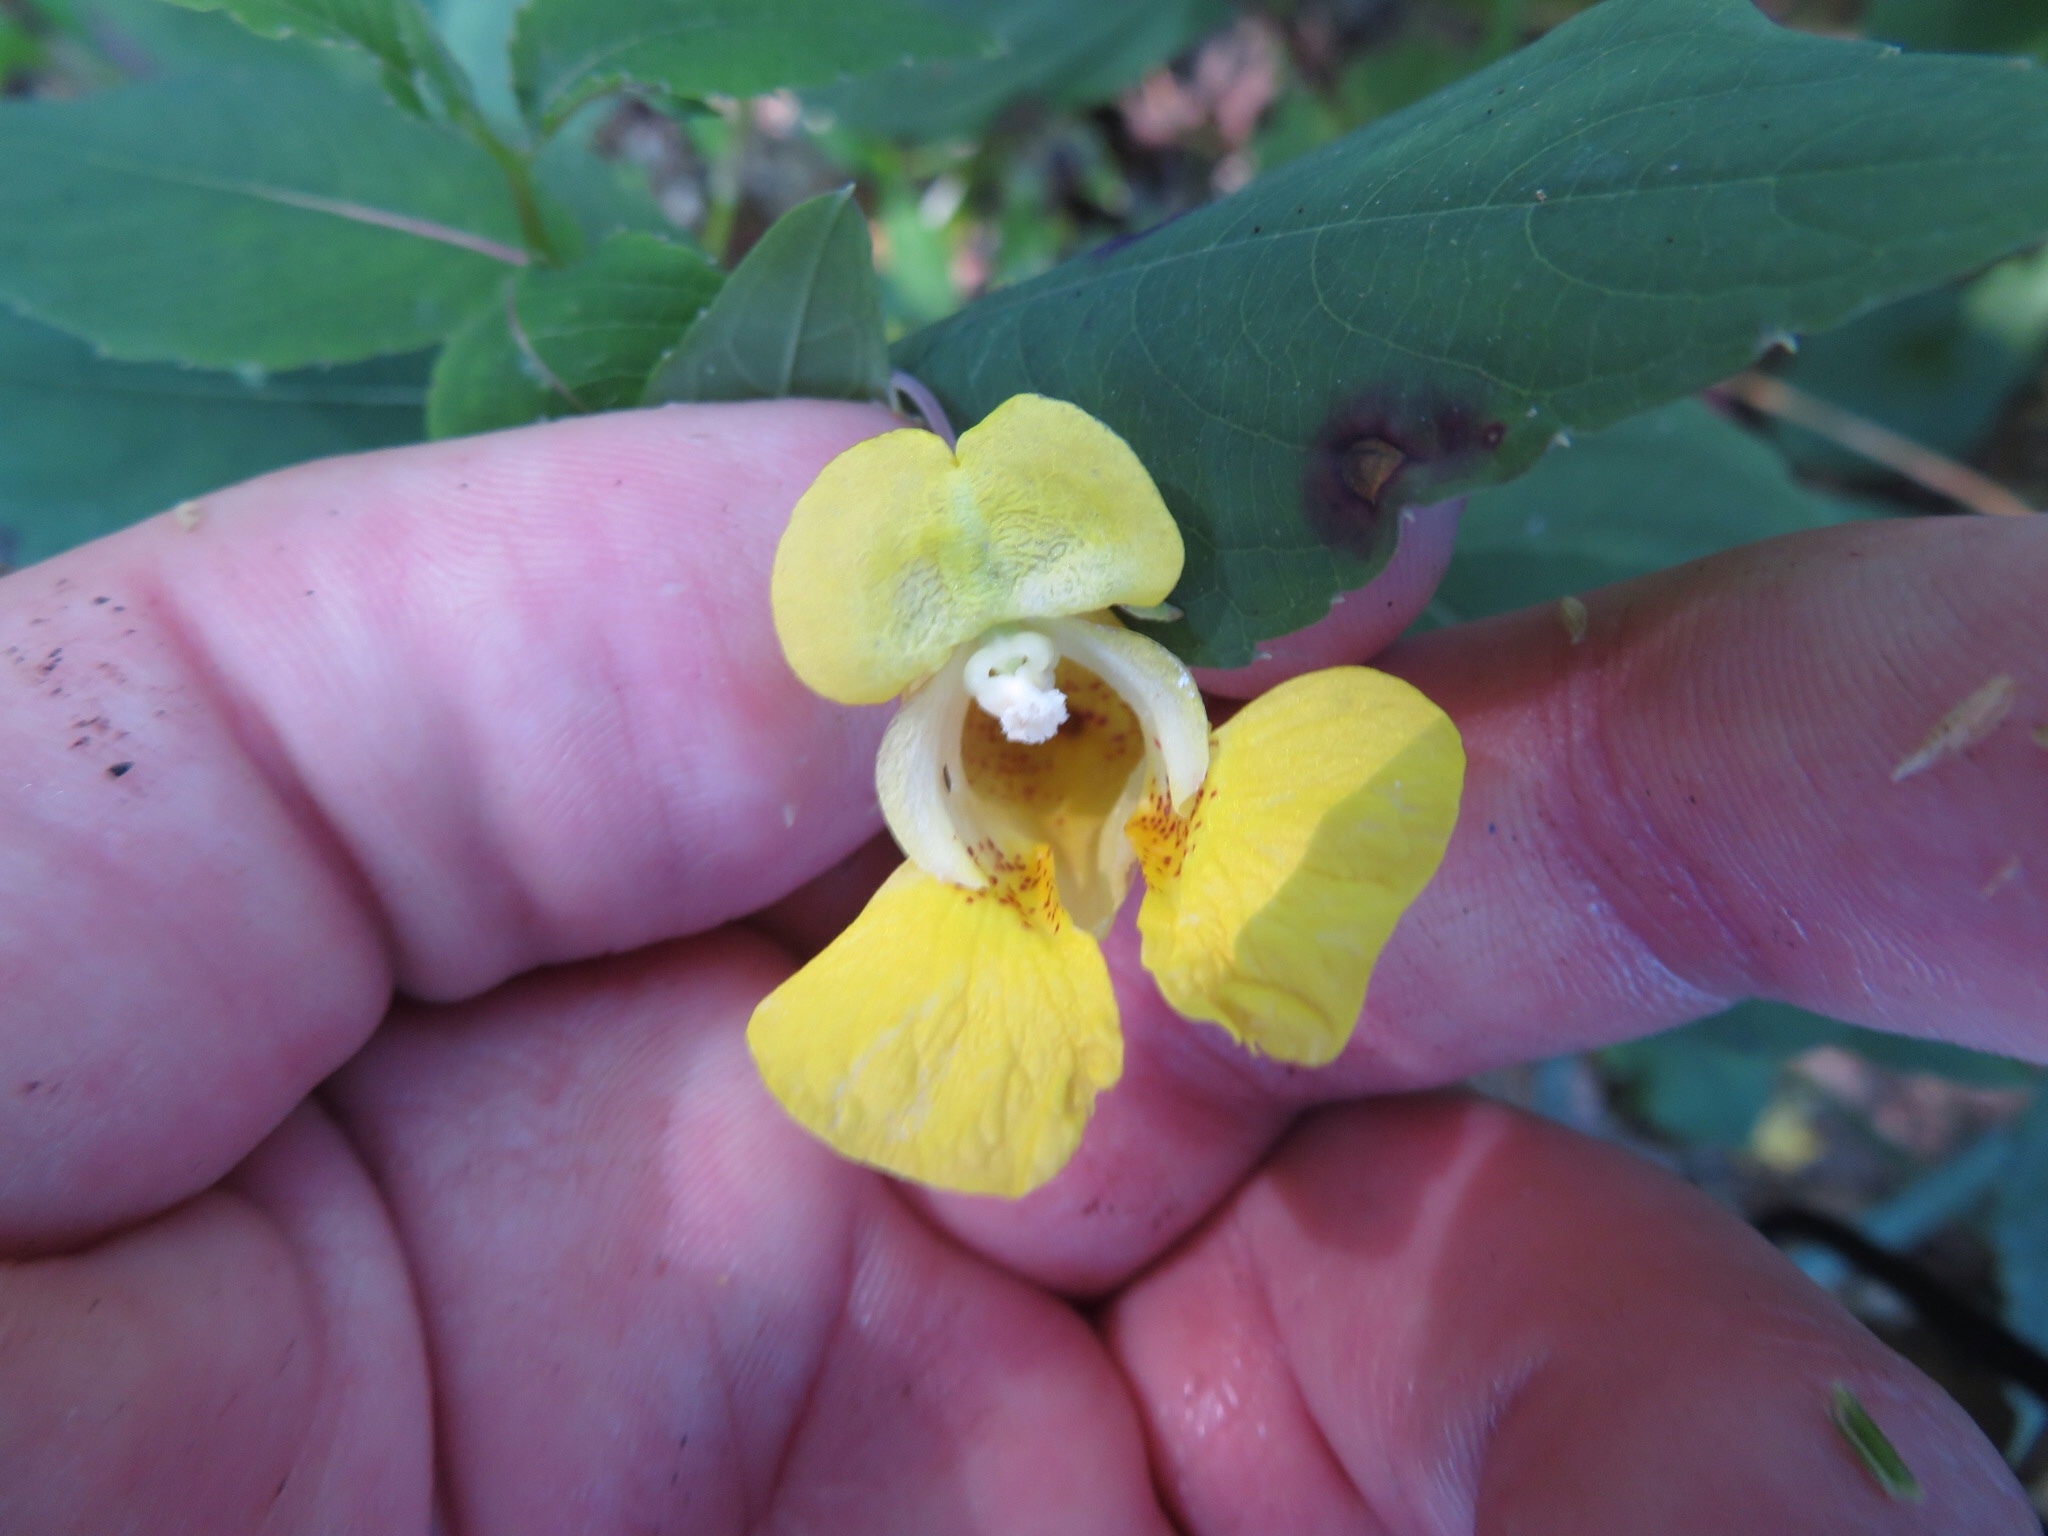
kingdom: Plantae
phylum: Tracheophyta
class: Magnoliopsida
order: Ericales
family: Balsaminaceae
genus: Impatiens
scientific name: Impatiens pallida
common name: Pale snapweed
